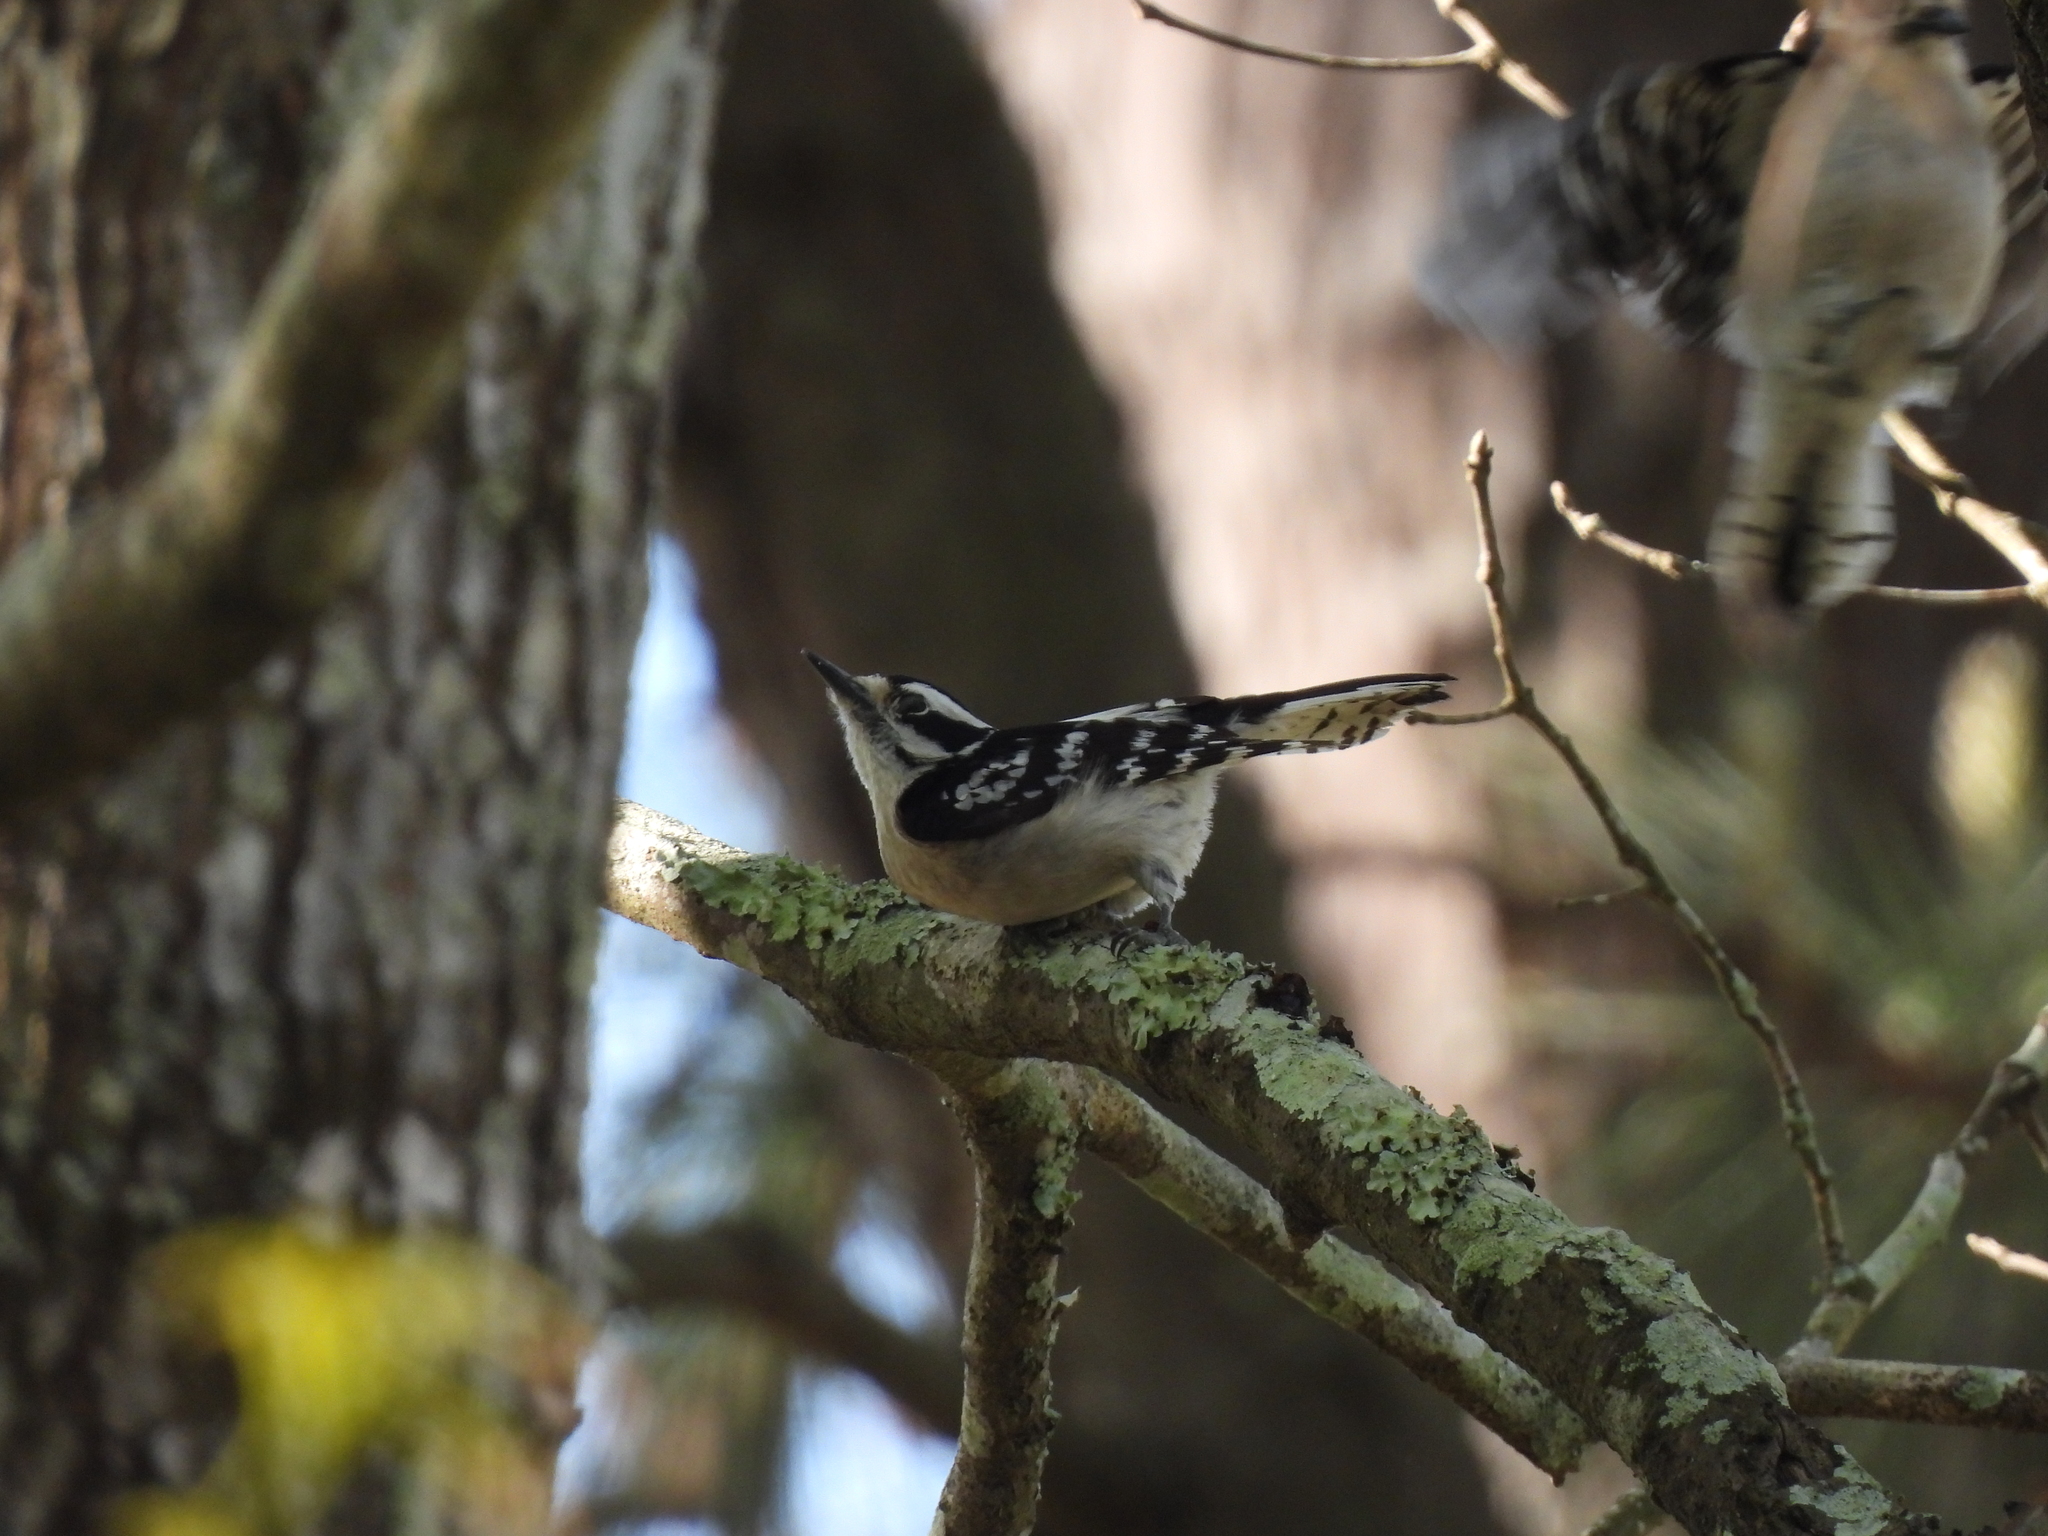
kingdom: Animalia
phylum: Chordata
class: Aves
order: Piciformes
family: Picidae
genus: Dryobates
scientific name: Dryobates pubescens
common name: Downy woodpecker
